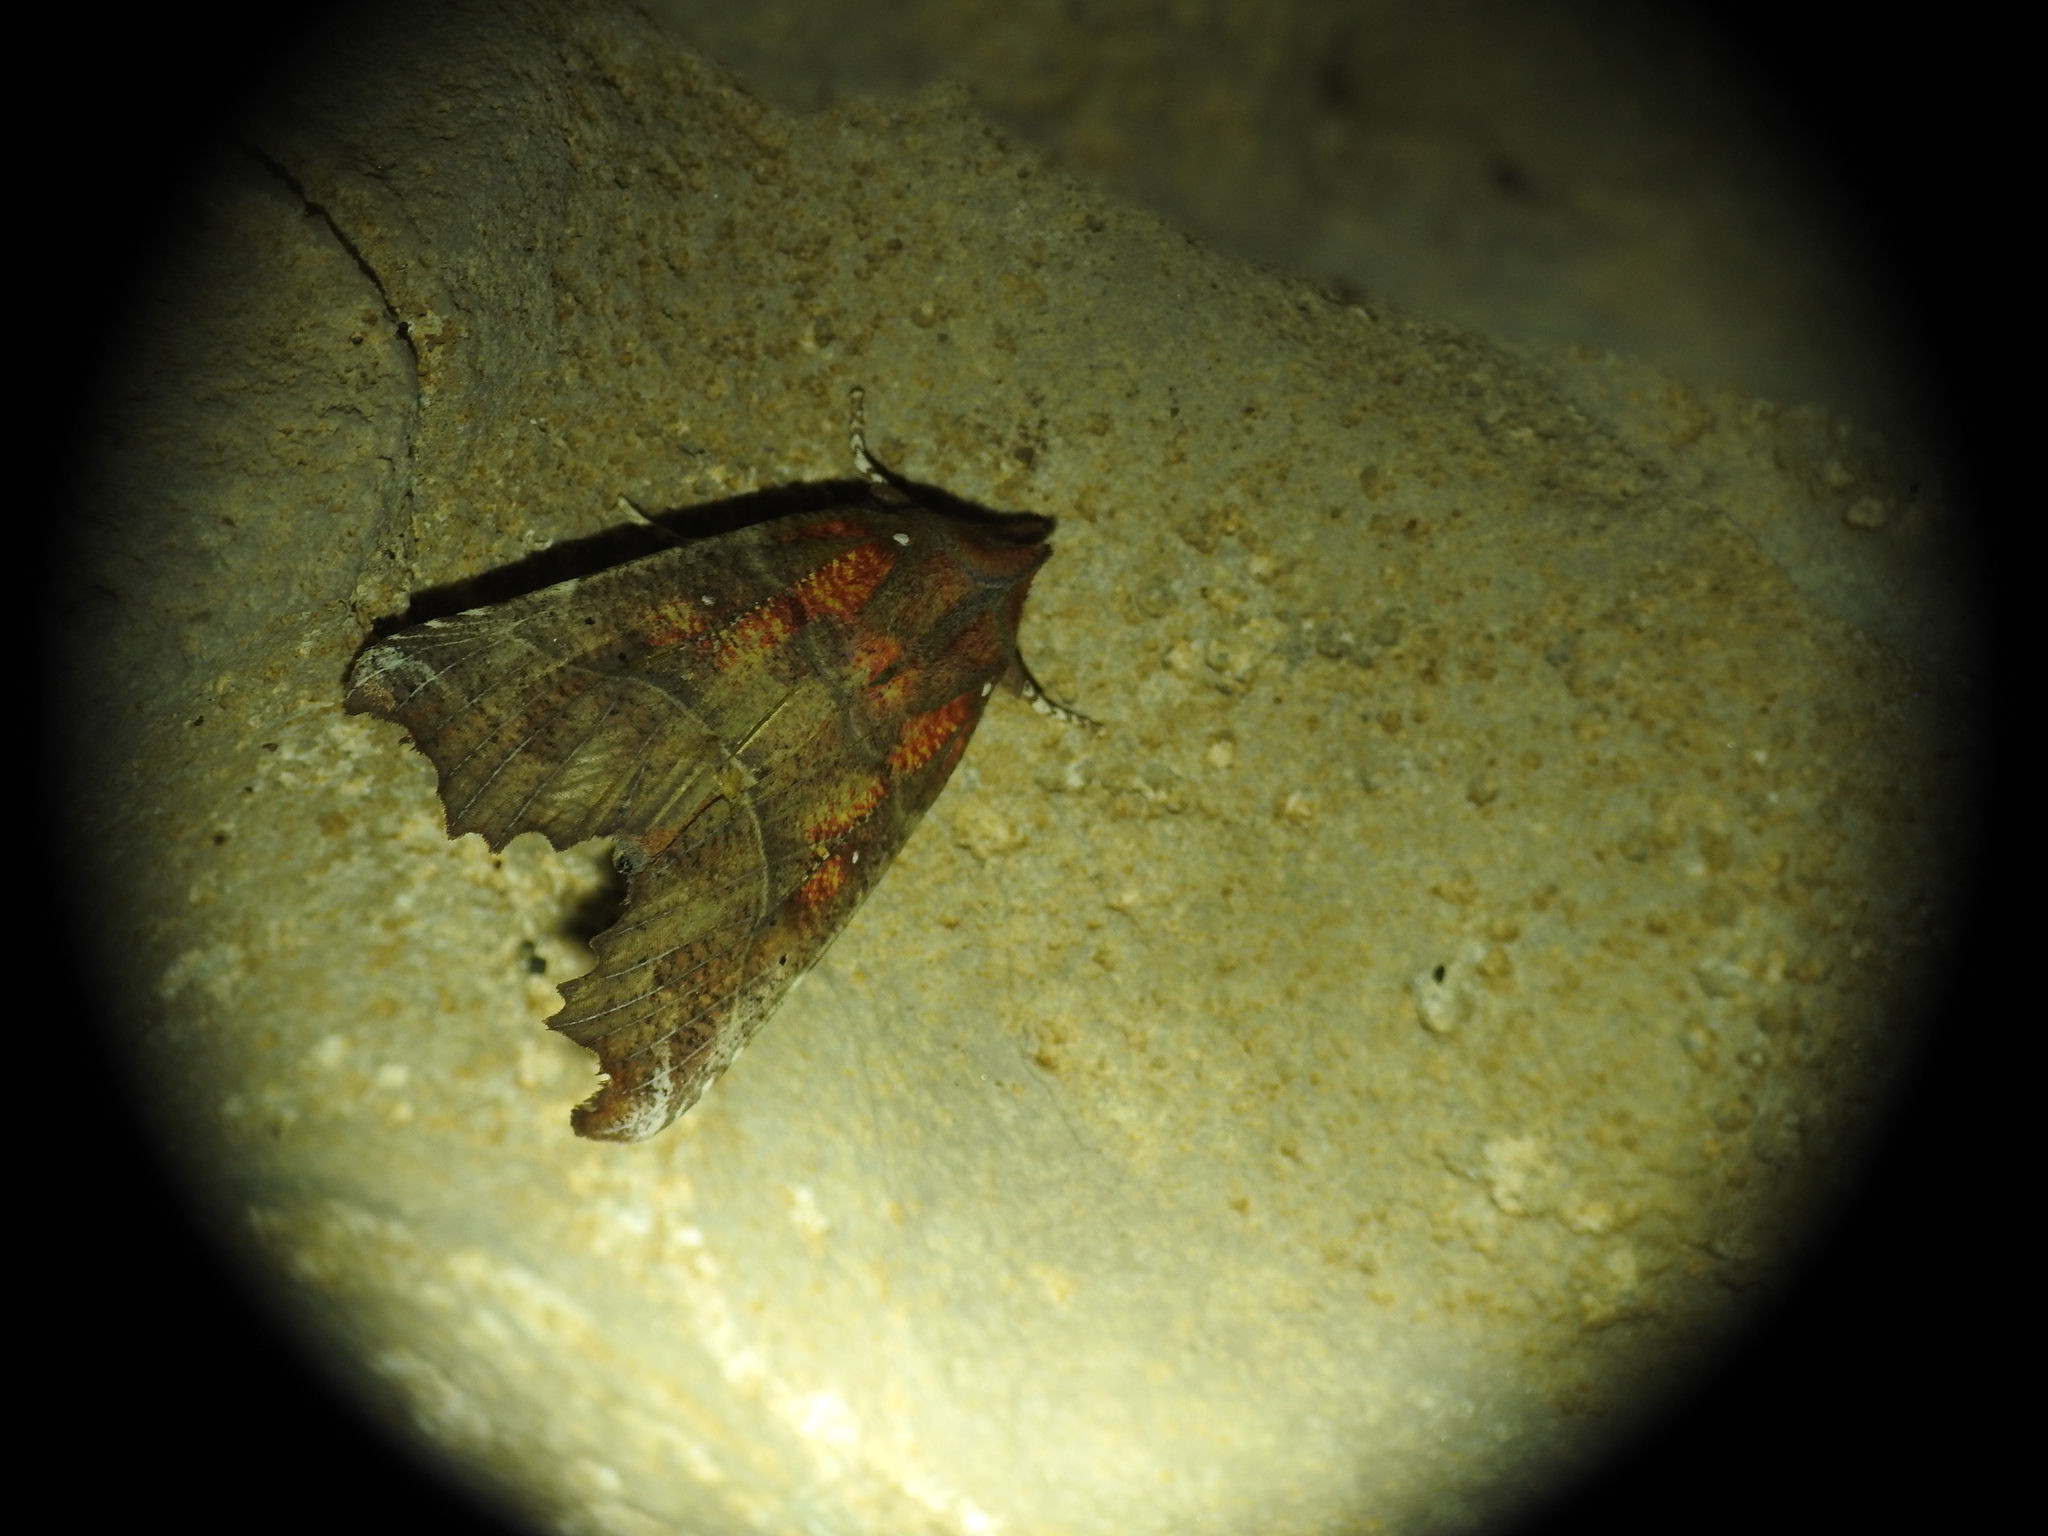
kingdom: Animalia
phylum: Arthropoda
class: Insecta
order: Lepidoptera
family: Erebidae
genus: Scoliopteryx
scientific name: Scoliopteryx libatrix
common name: Herald
